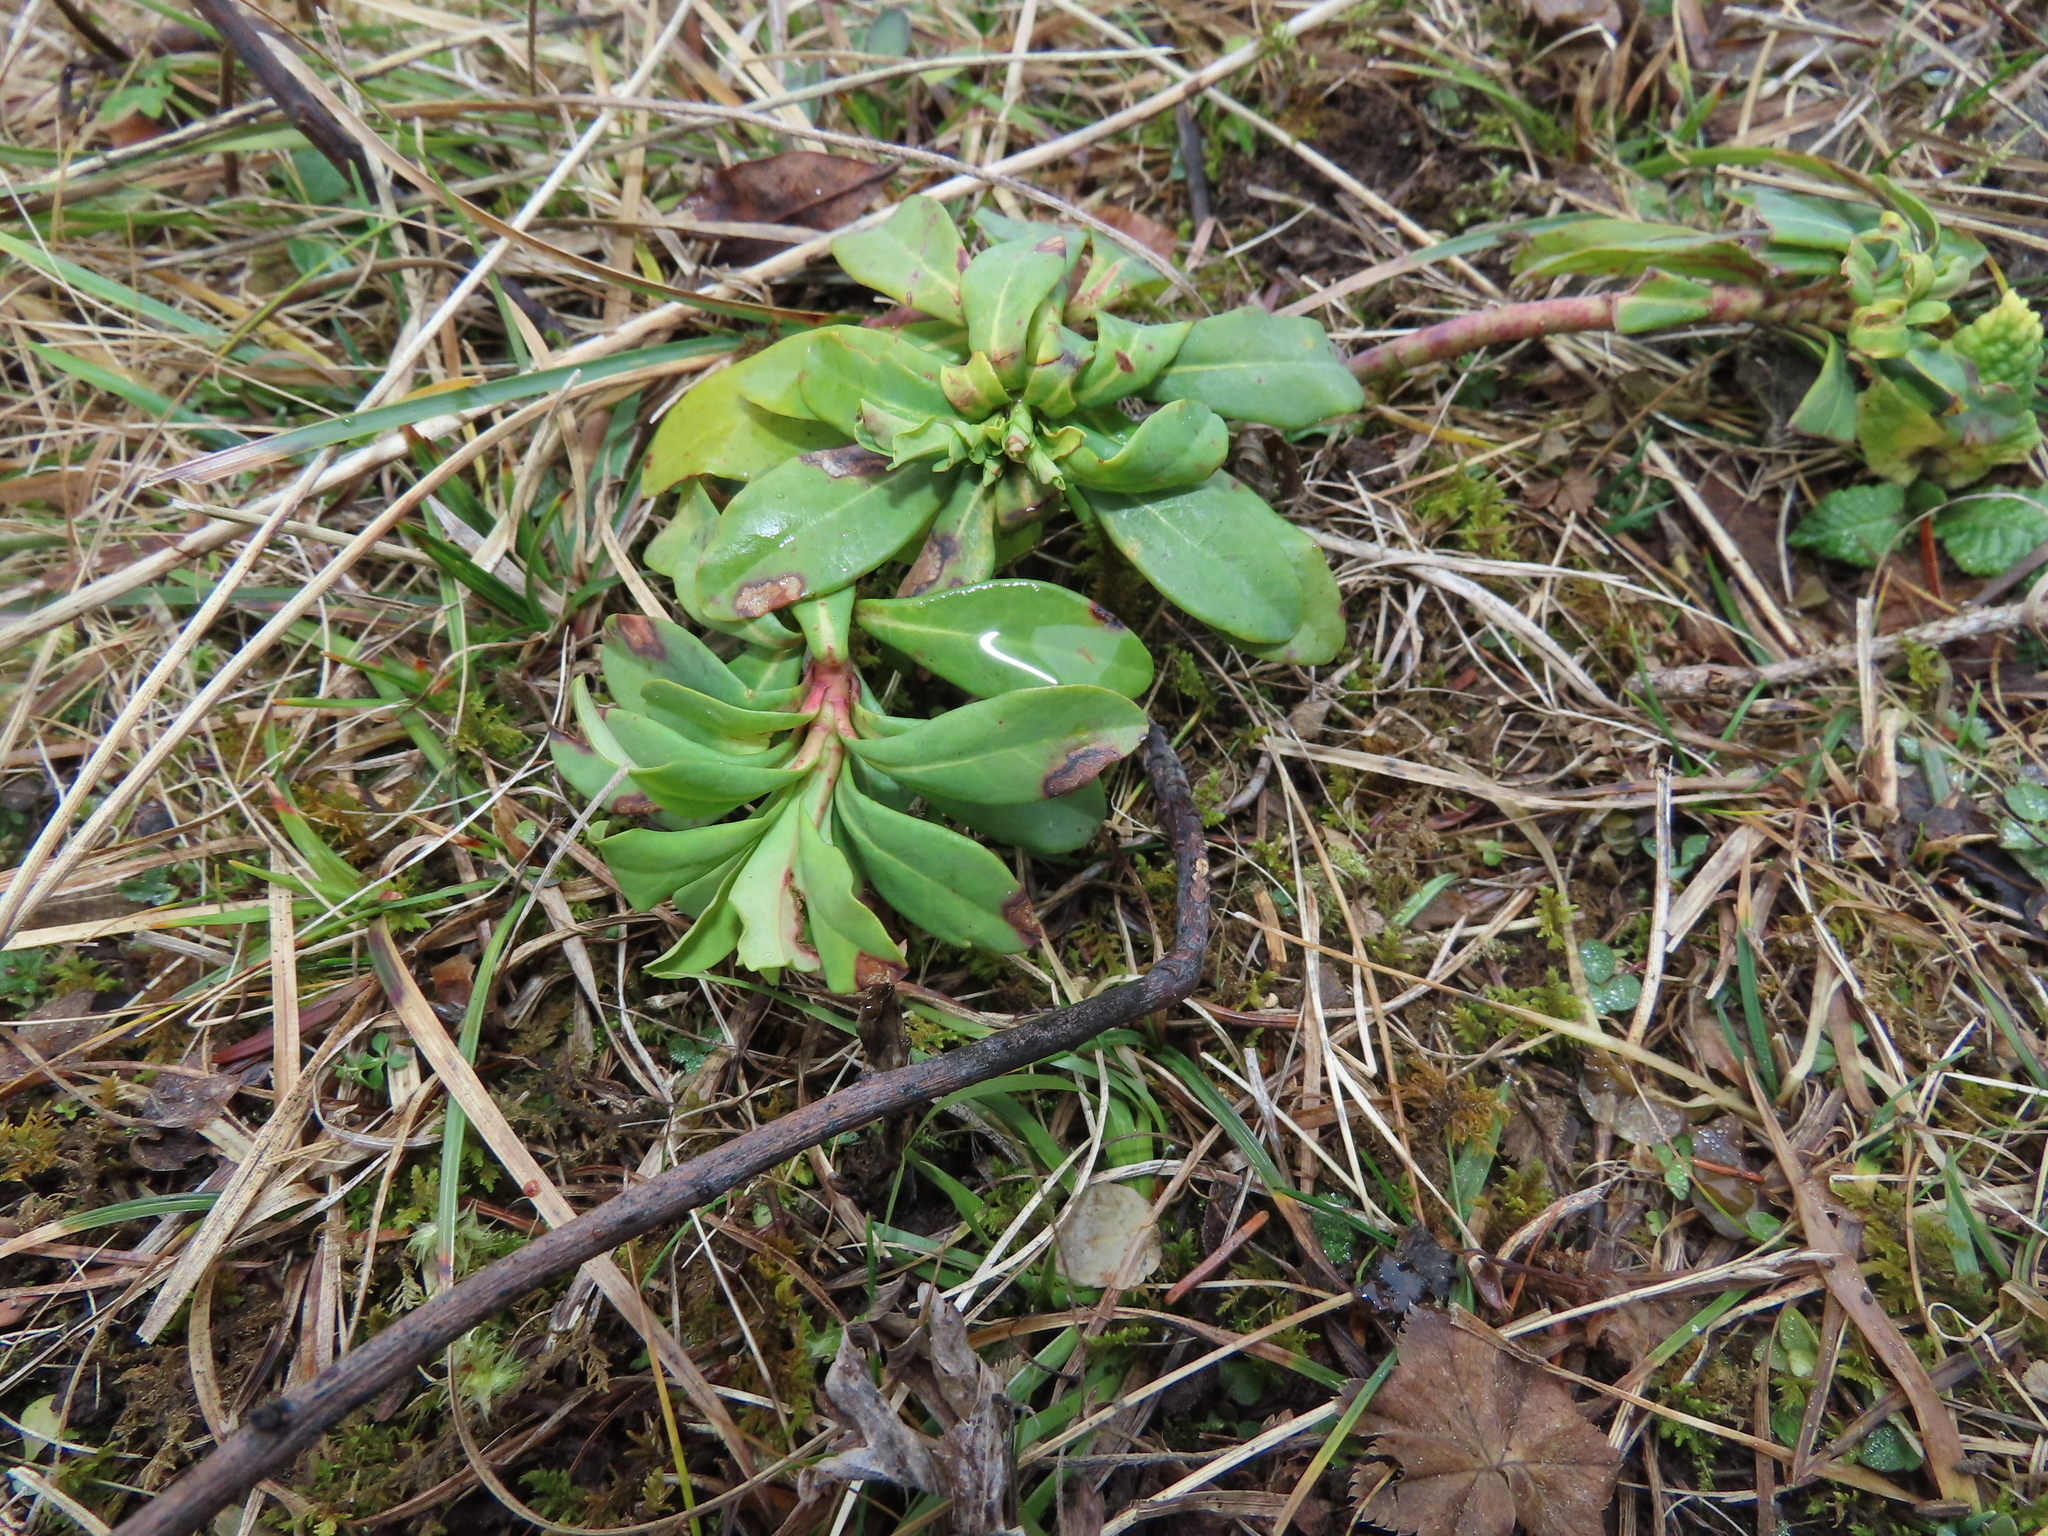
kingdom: Plantae
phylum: Tracheophyta
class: Magnoliopsida
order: Malpighiales
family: Euphorbiaceae
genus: Euphorbia
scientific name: Euphorbia amygdaloides
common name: Wood spurge
